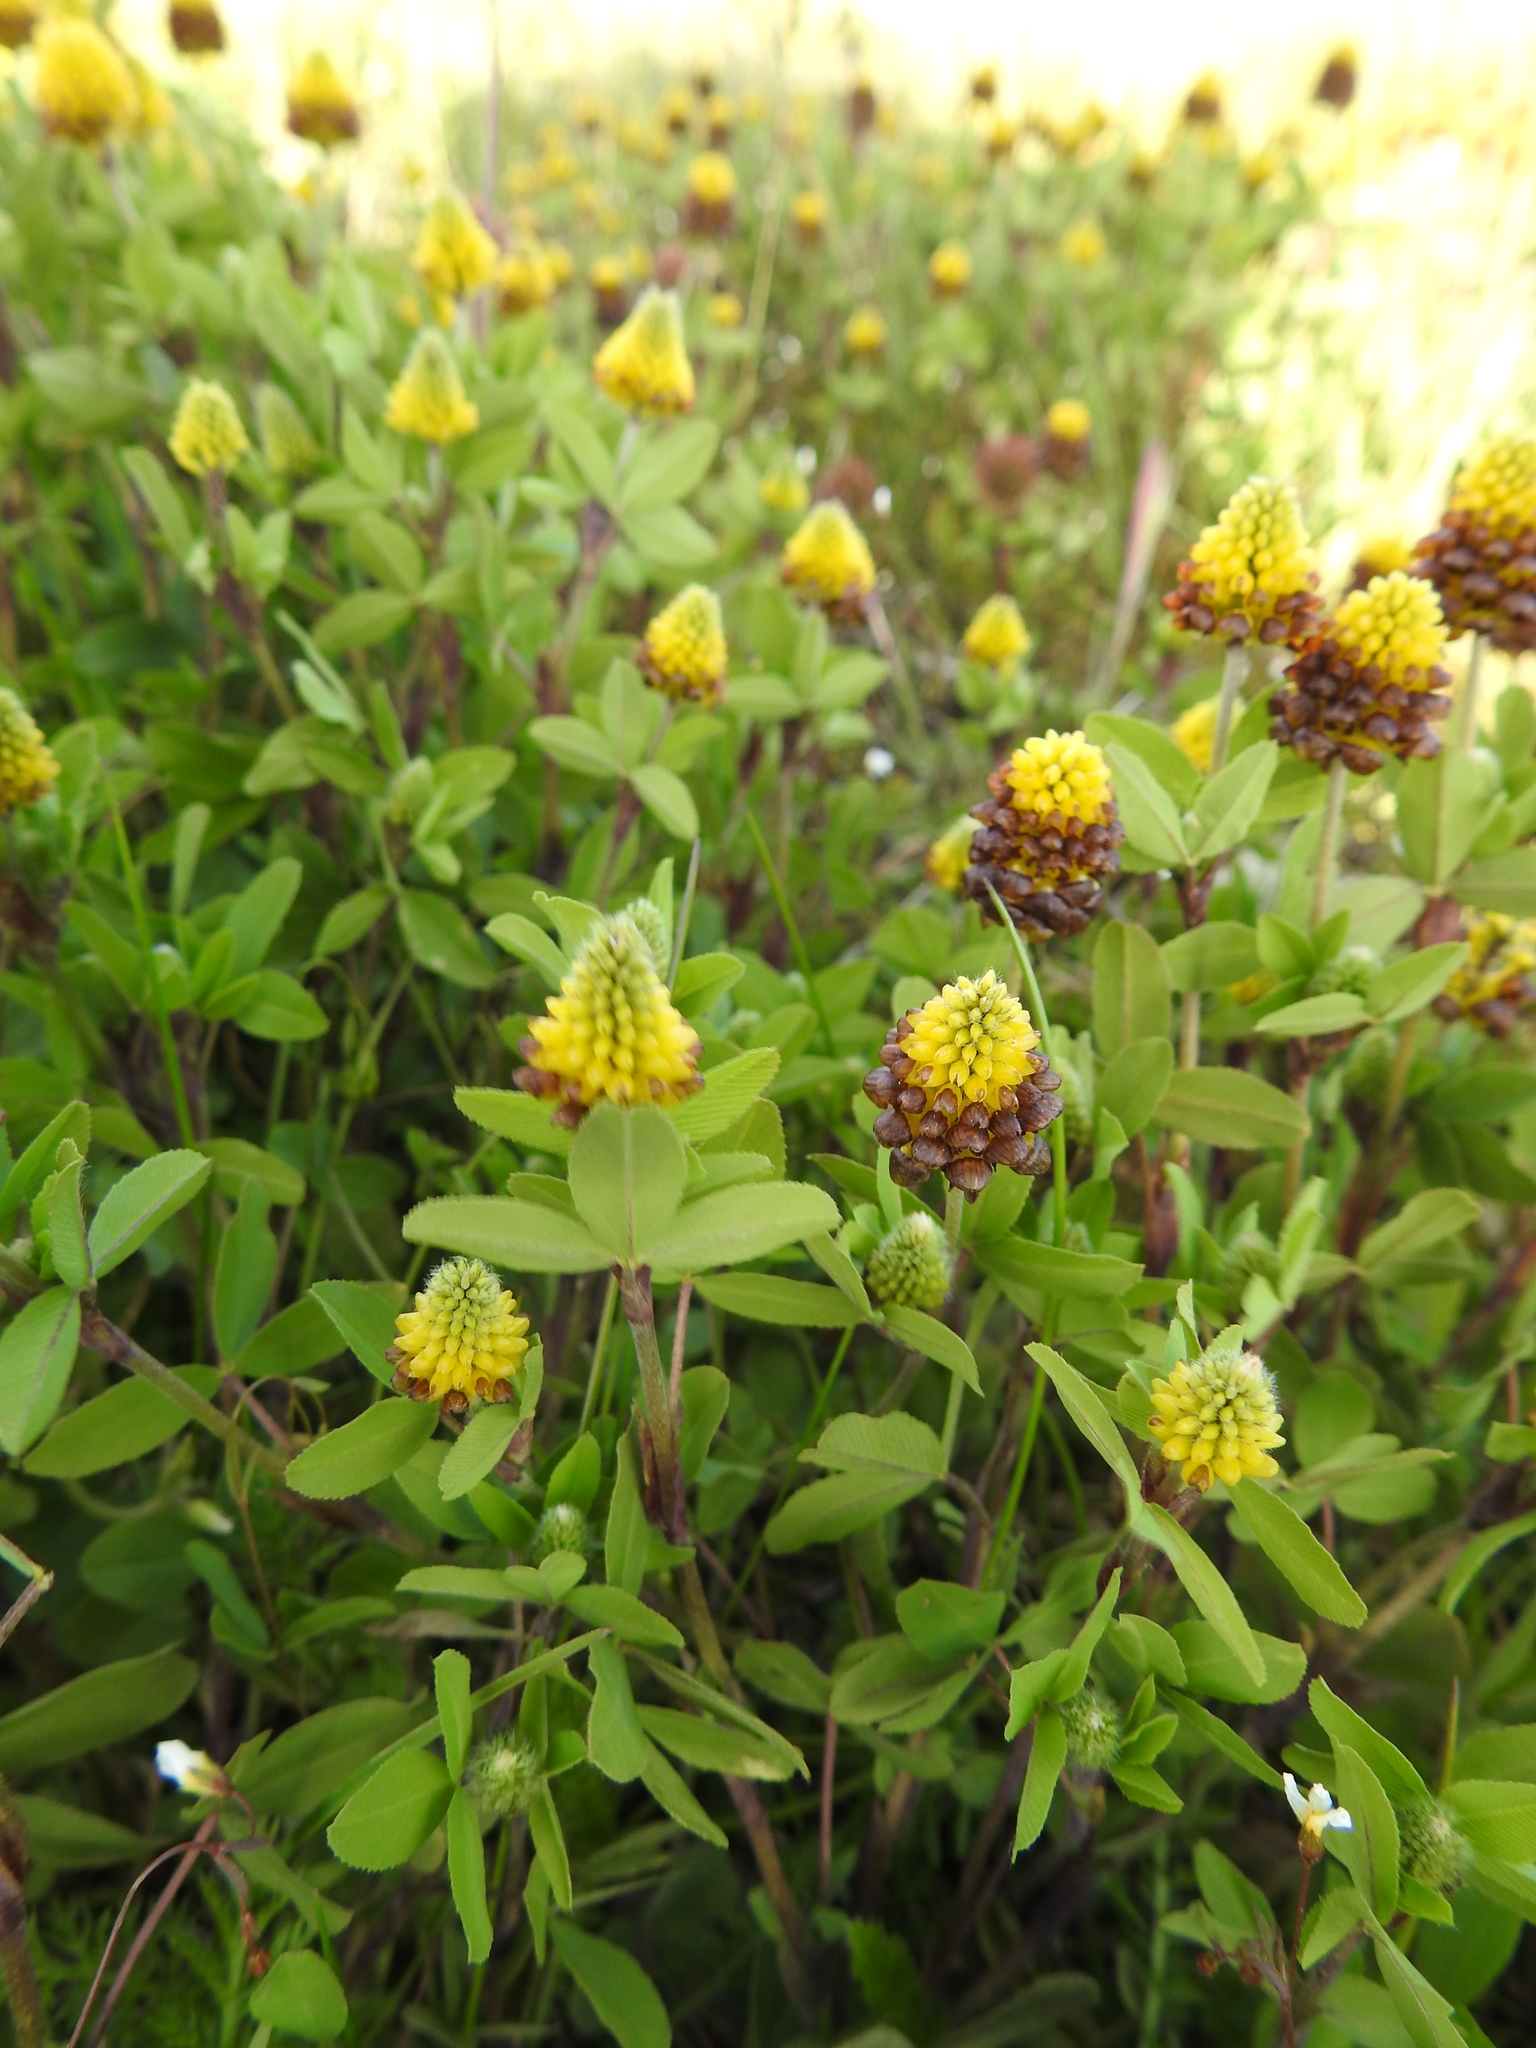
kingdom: Plantae
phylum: Tracheophyta
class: Magnoliopsida
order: Fabales
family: Fabaceae
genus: Trifolium
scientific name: Trifolium spadiceum
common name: Brown moor clover
